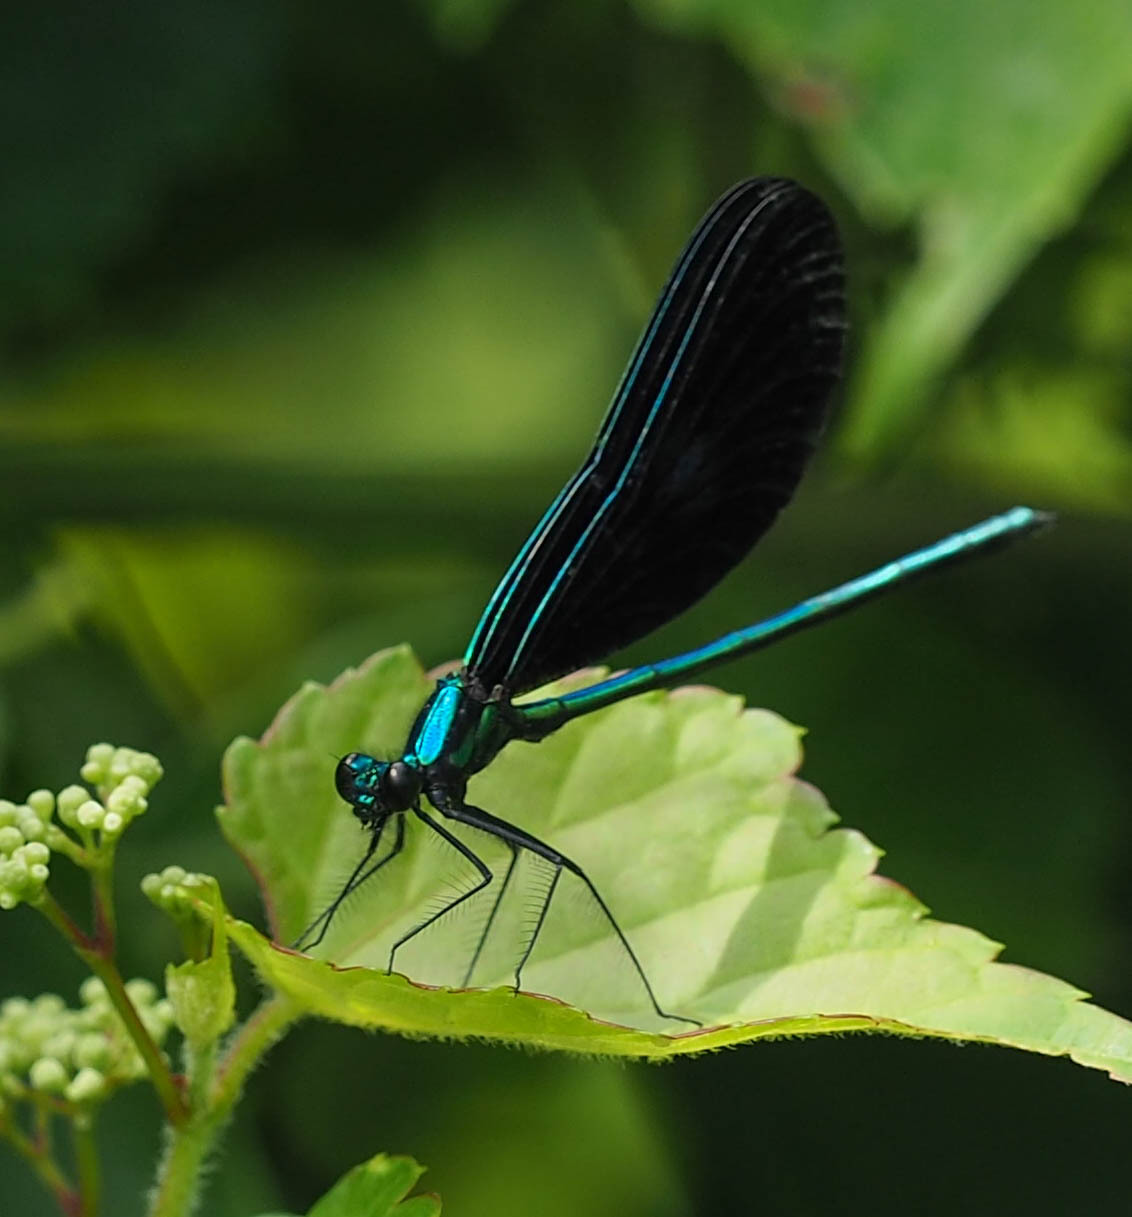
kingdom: Animalia
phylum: Arthropoda
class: Insecta
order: Odonata
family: Calopterygidae
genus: Calopteryx
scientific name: Calopteryx maculata
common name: Ebony jewelwing
